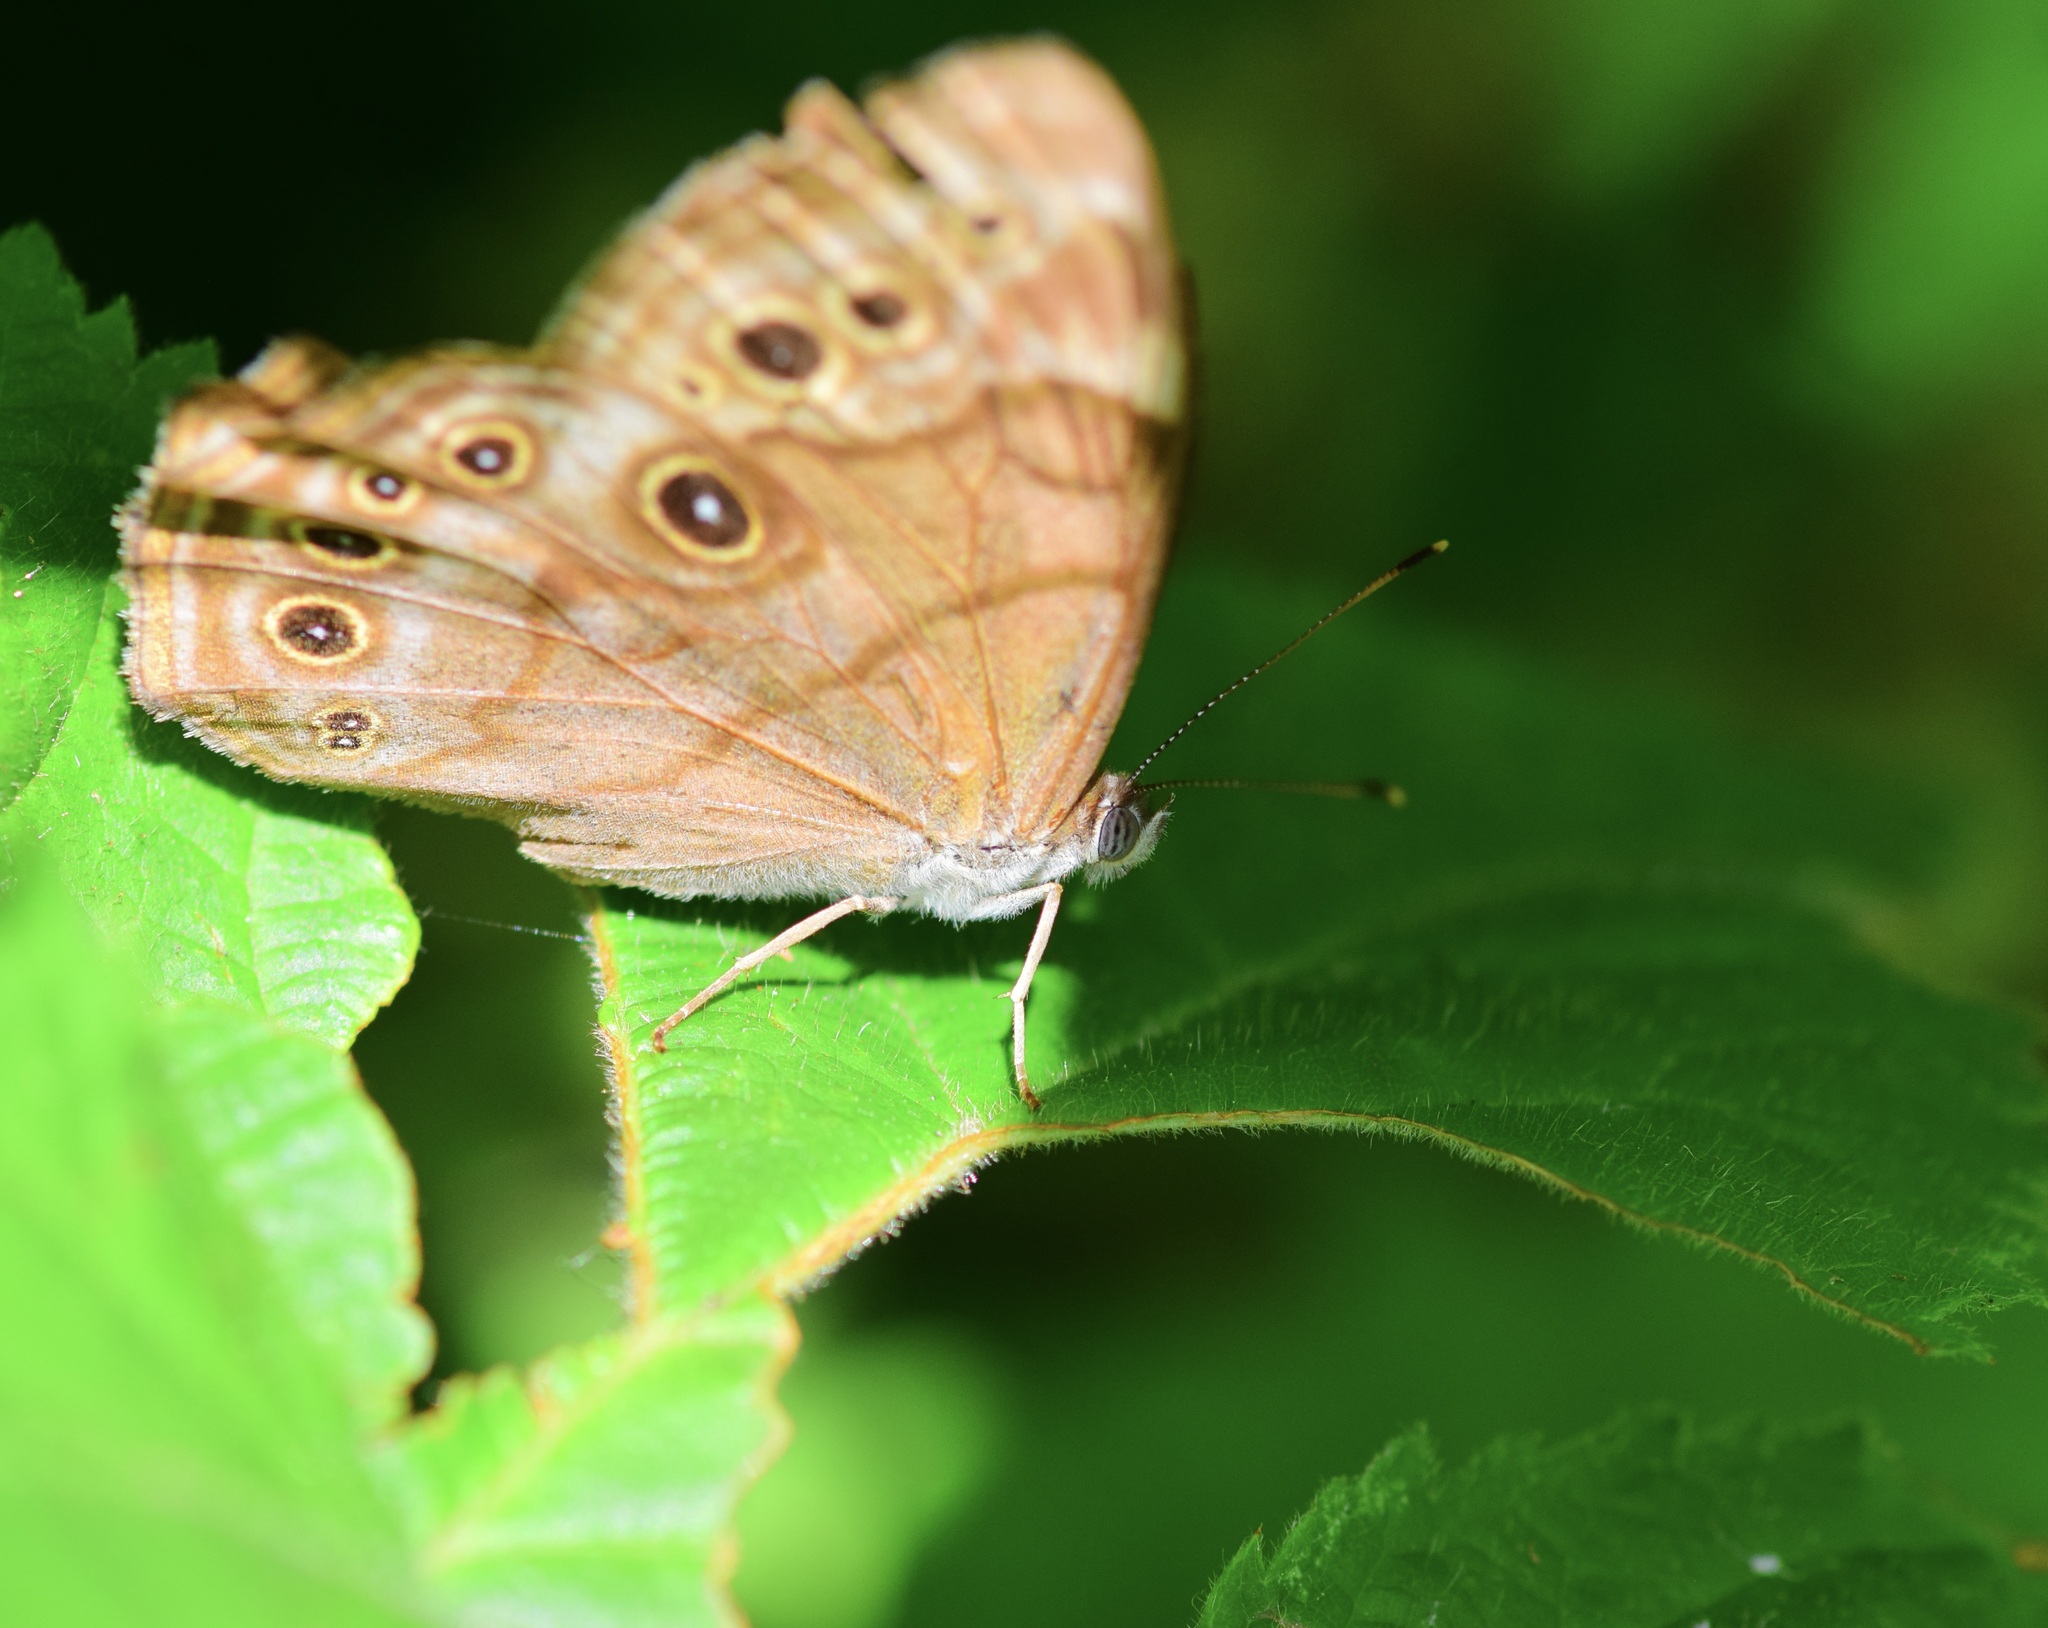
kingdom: Animalia
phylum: Arthropoda
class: Insecta
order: Lepidoptera
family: Nymphalidae
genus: Lethe
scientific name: Lethe anthedon
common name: Northern pearly-eye
